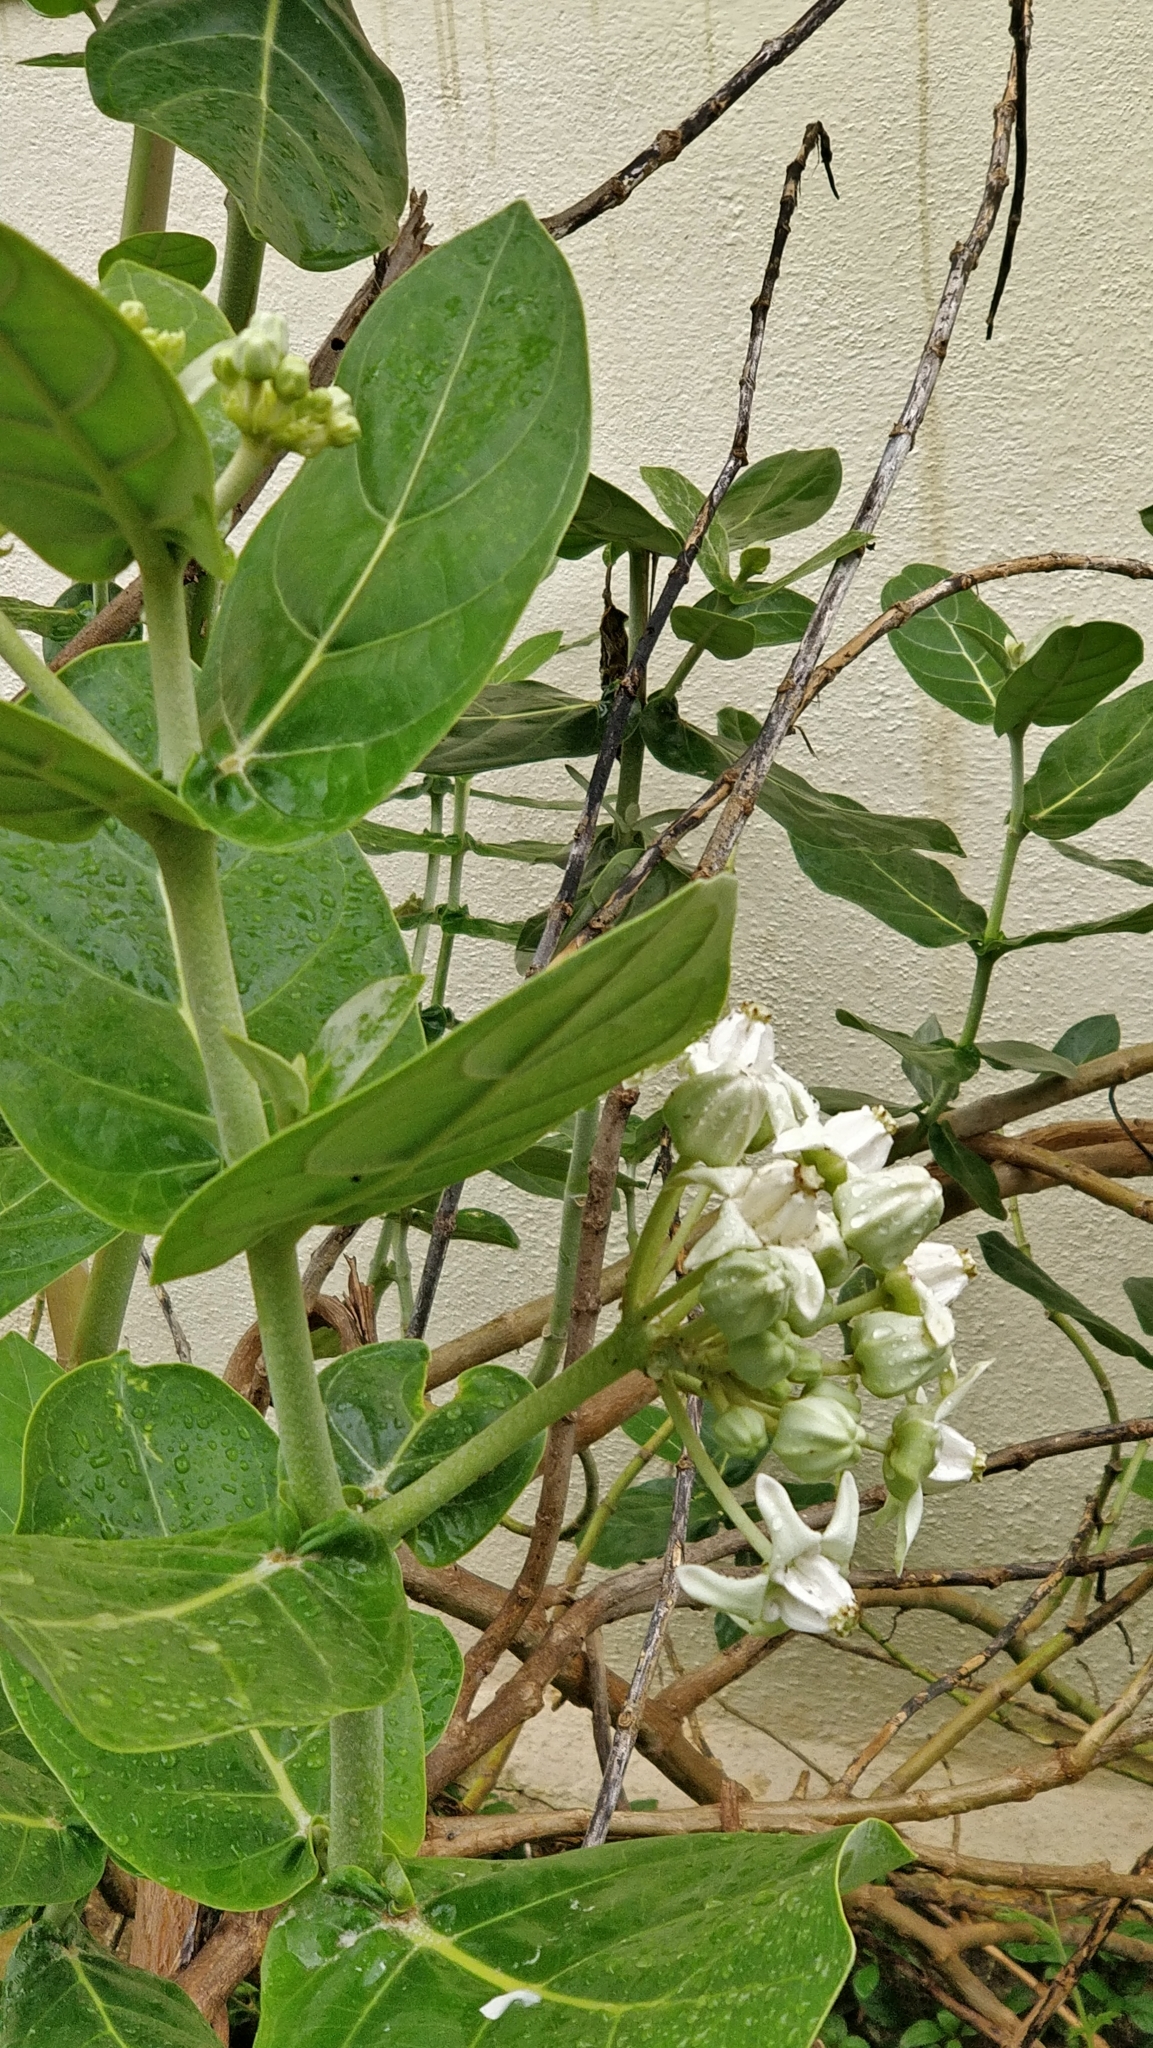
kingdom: Plantae
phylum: Tracheophyta
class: Magnoliopsida
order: Gentianales
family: Apocynaceae
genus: Calotropis
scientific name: Calotropis gigantea
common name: Crown flower
